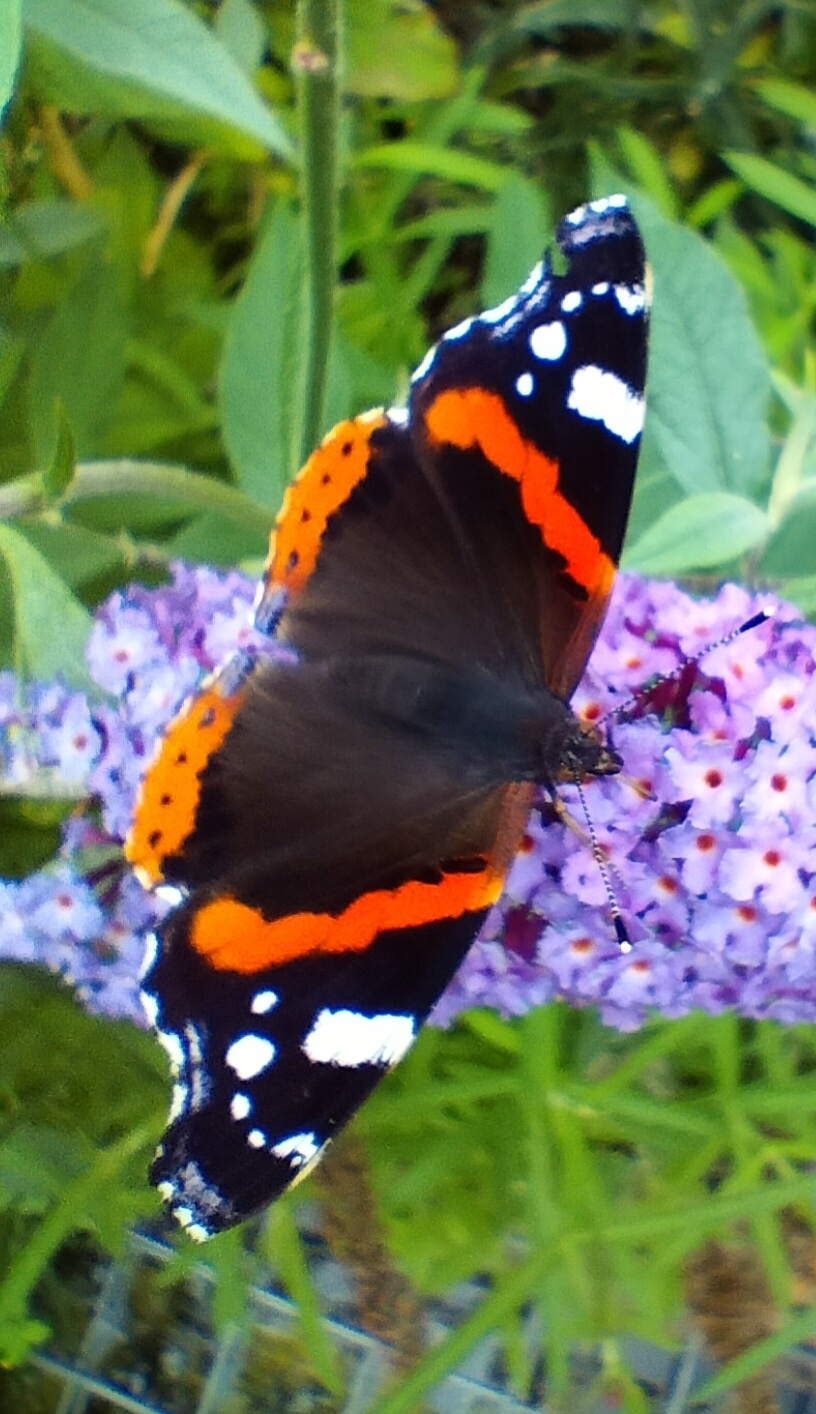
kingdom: Animalia
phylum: Arthropoda
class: Insecta
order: Lepidoptera
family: Nymphalidae
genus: Vanessa
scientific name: Vanessa atalanta
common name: Red admiral
